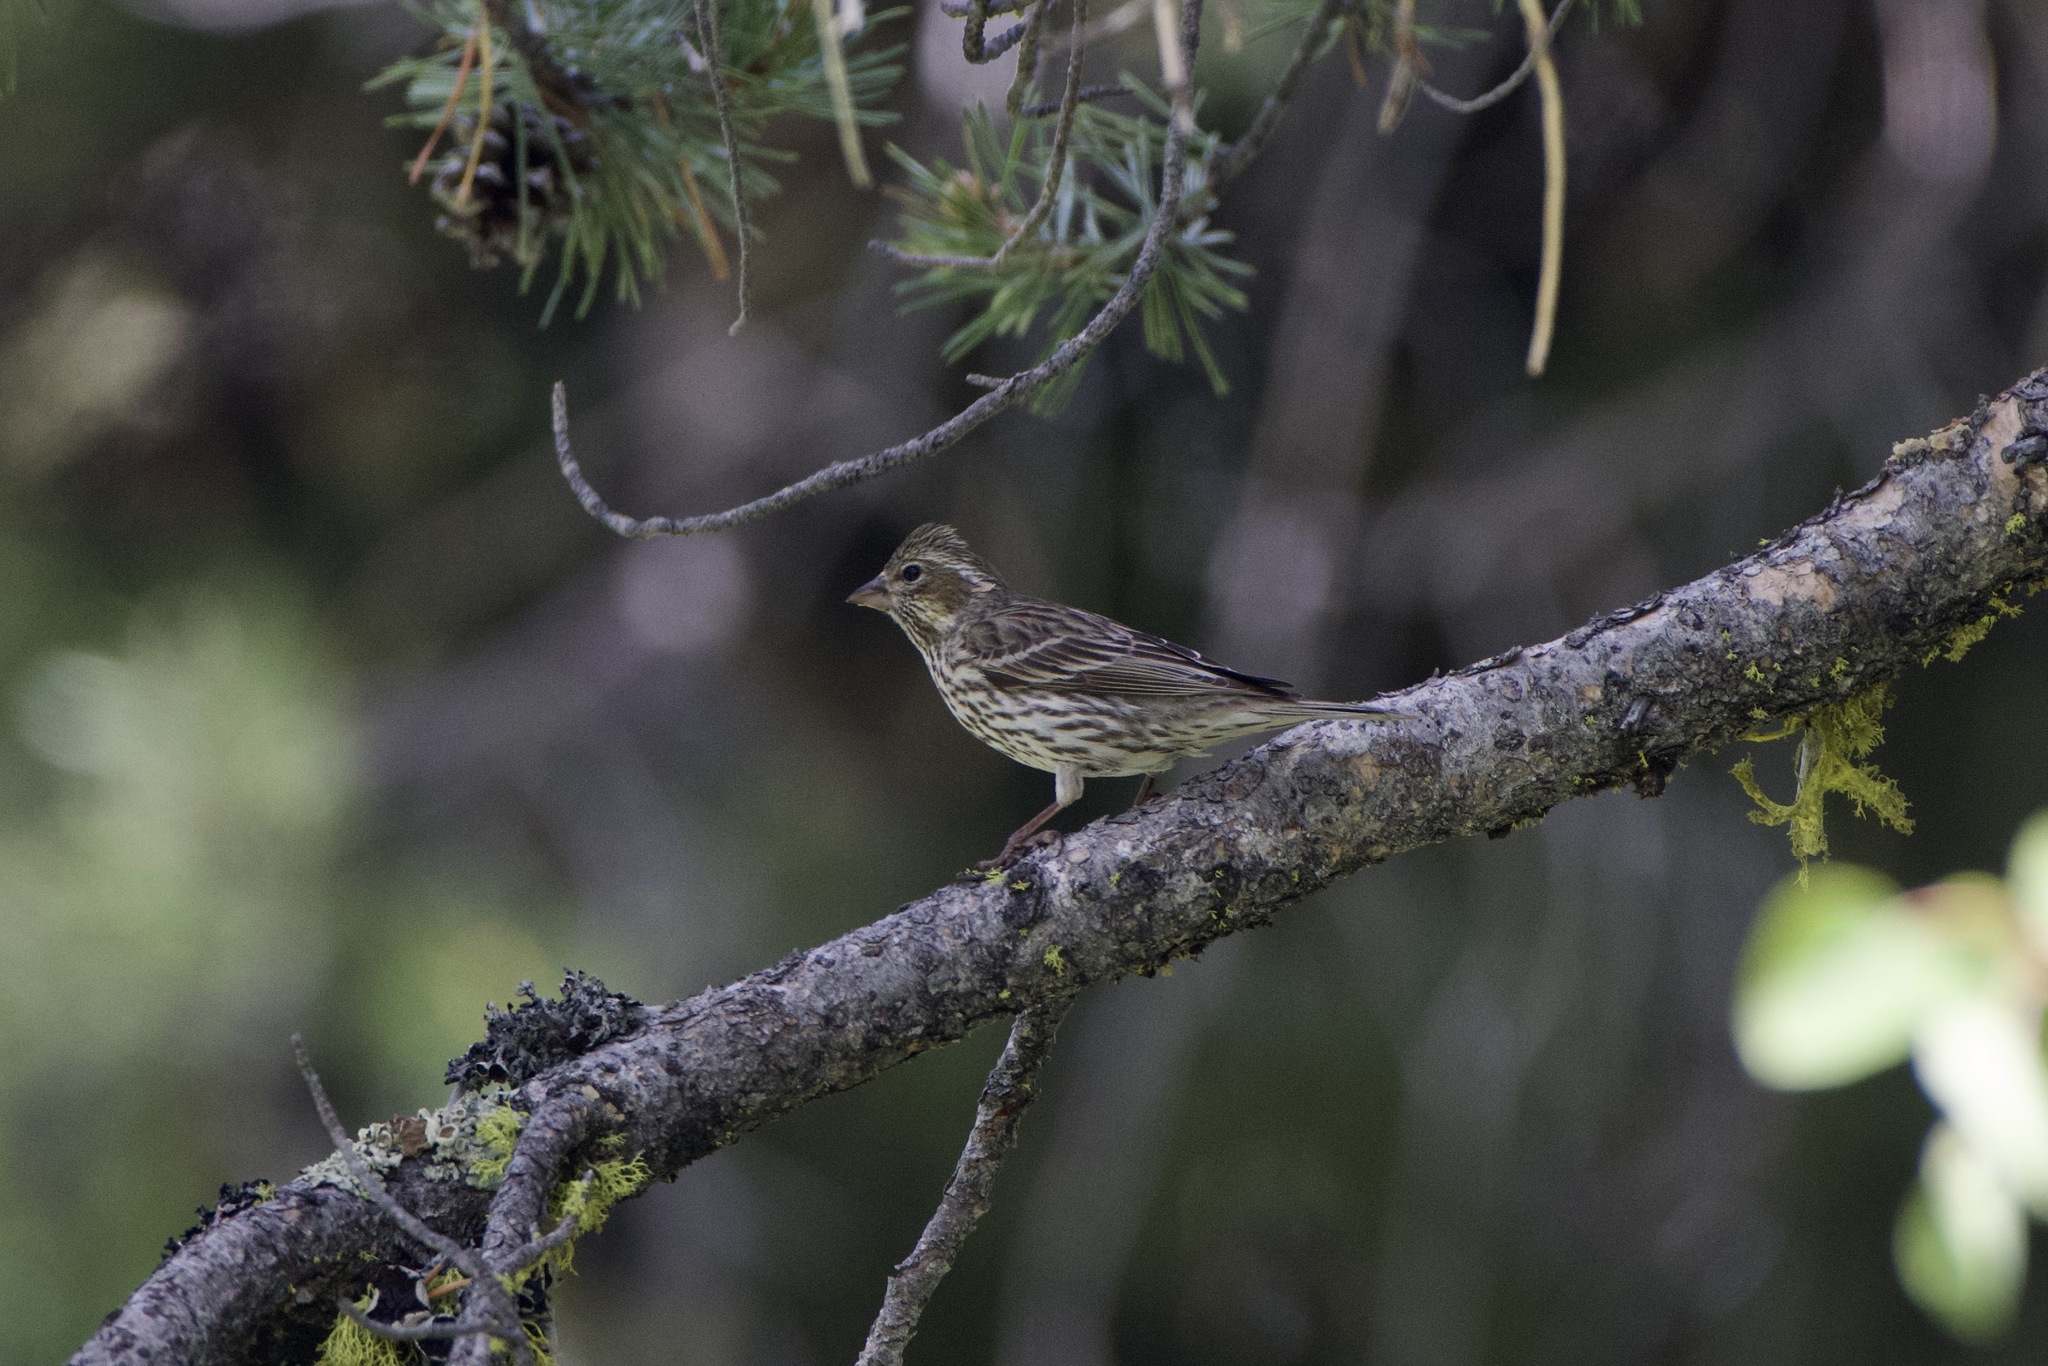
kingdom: Animalia
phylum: Chordata
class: Aves
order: Passeriformes
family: Fringillidae
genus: Haemorhous
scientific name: Haemorhous cassinii
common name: Cassin's finch
